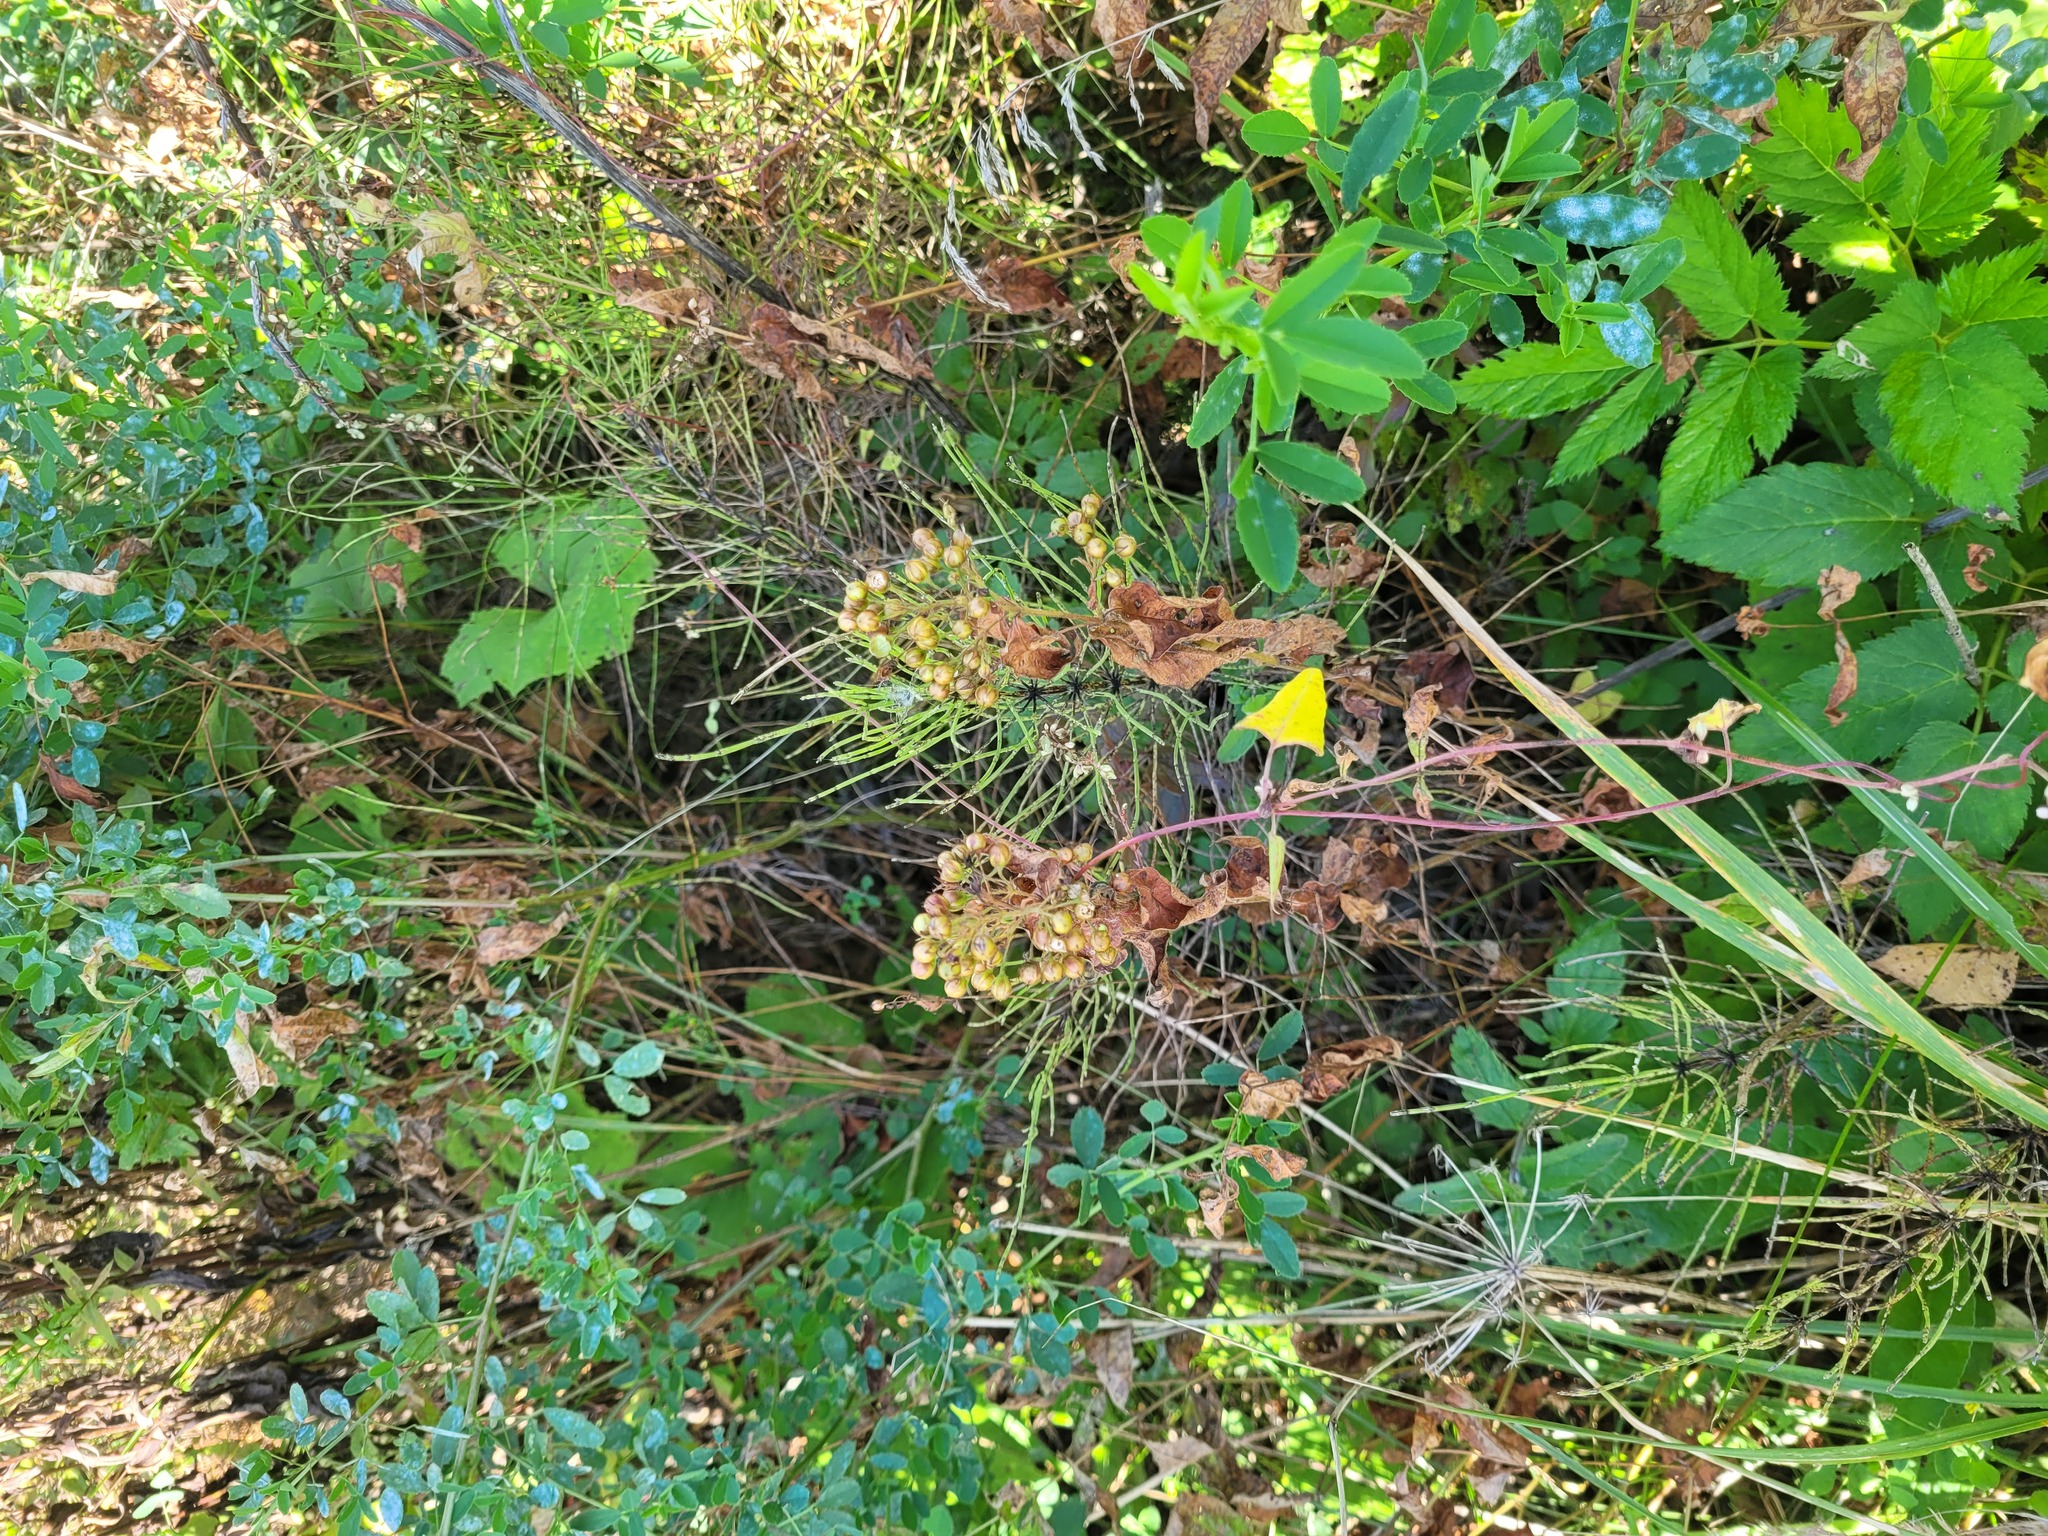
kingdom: Plantae
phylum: Tracheophyta
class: Magnoliopsida
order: Ericales
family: Primulaceae
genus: Lysimachia
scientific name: Lysimachia vulgaris
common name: Yellow loosestrife
